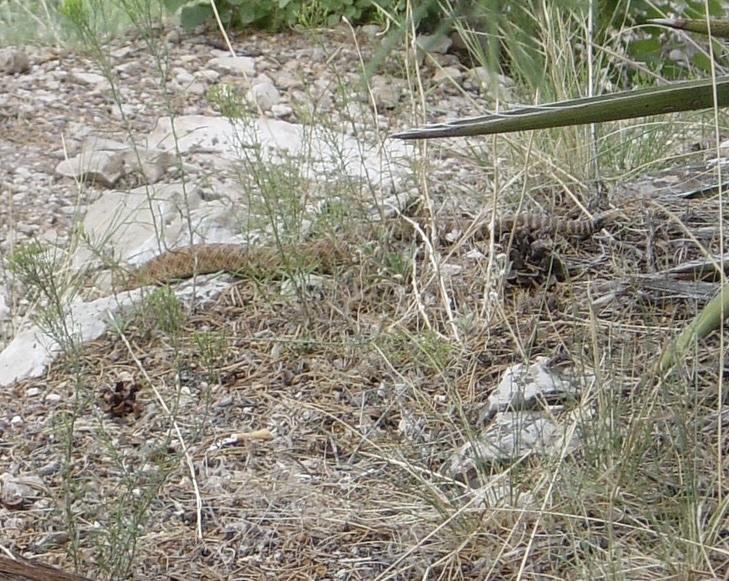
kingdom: Animalia
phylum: Chordata
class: Squamata
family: Viperidae
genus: Crotalus
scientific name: Crotalus oreganus
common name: Abyssus
